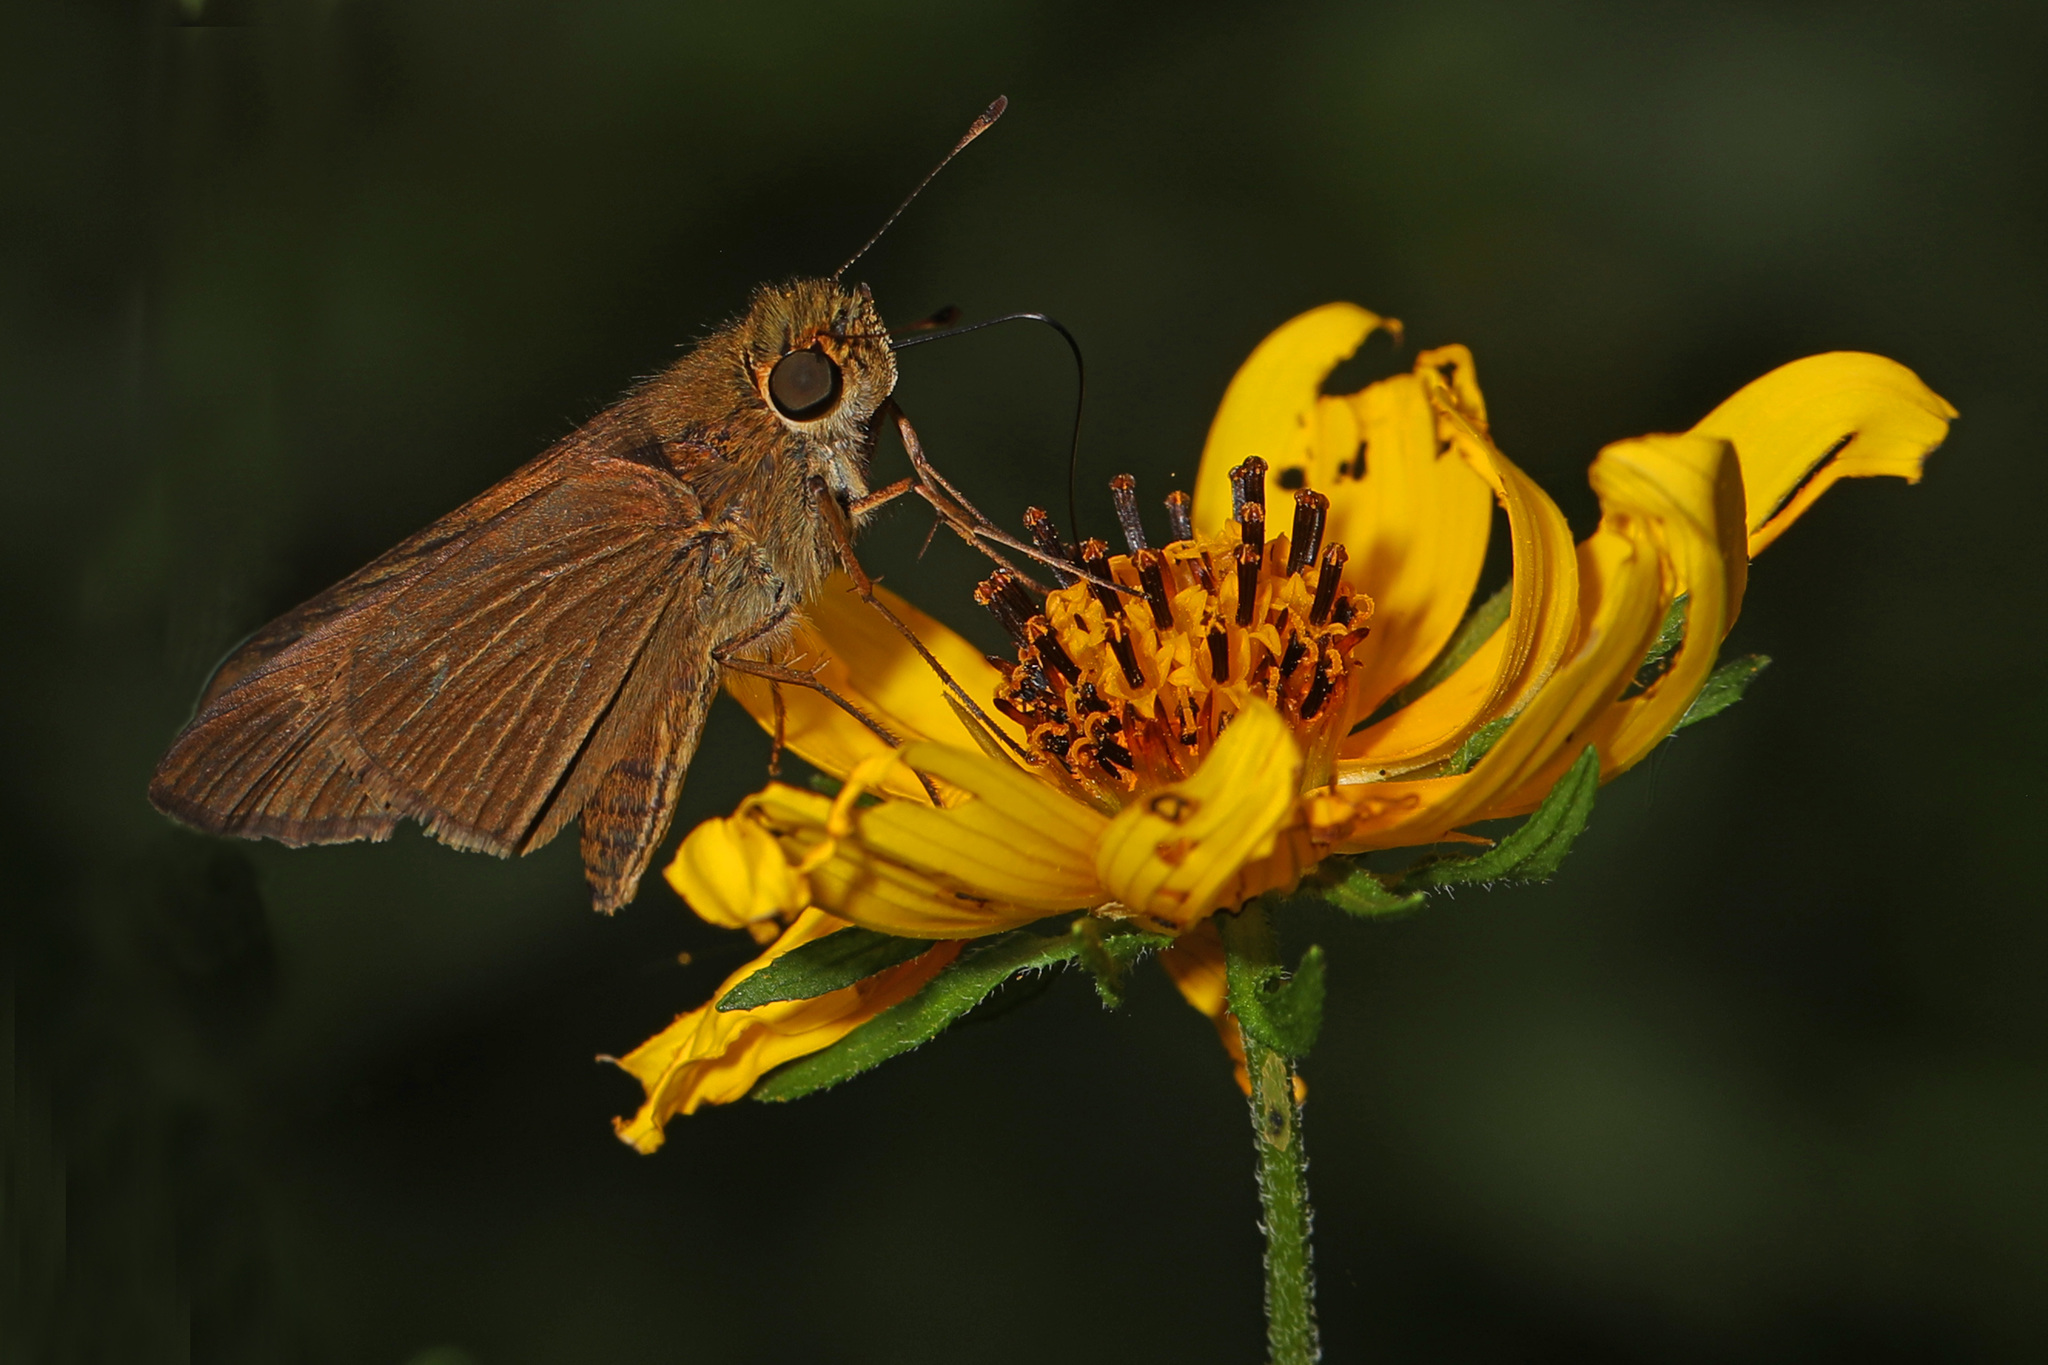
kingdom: Animalia
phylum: Arthropoda
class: Insecta
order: Lepidoptera
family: Hesperiidae
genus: Panoquina
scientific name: Panoquina ocola
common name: Ocola skipper
